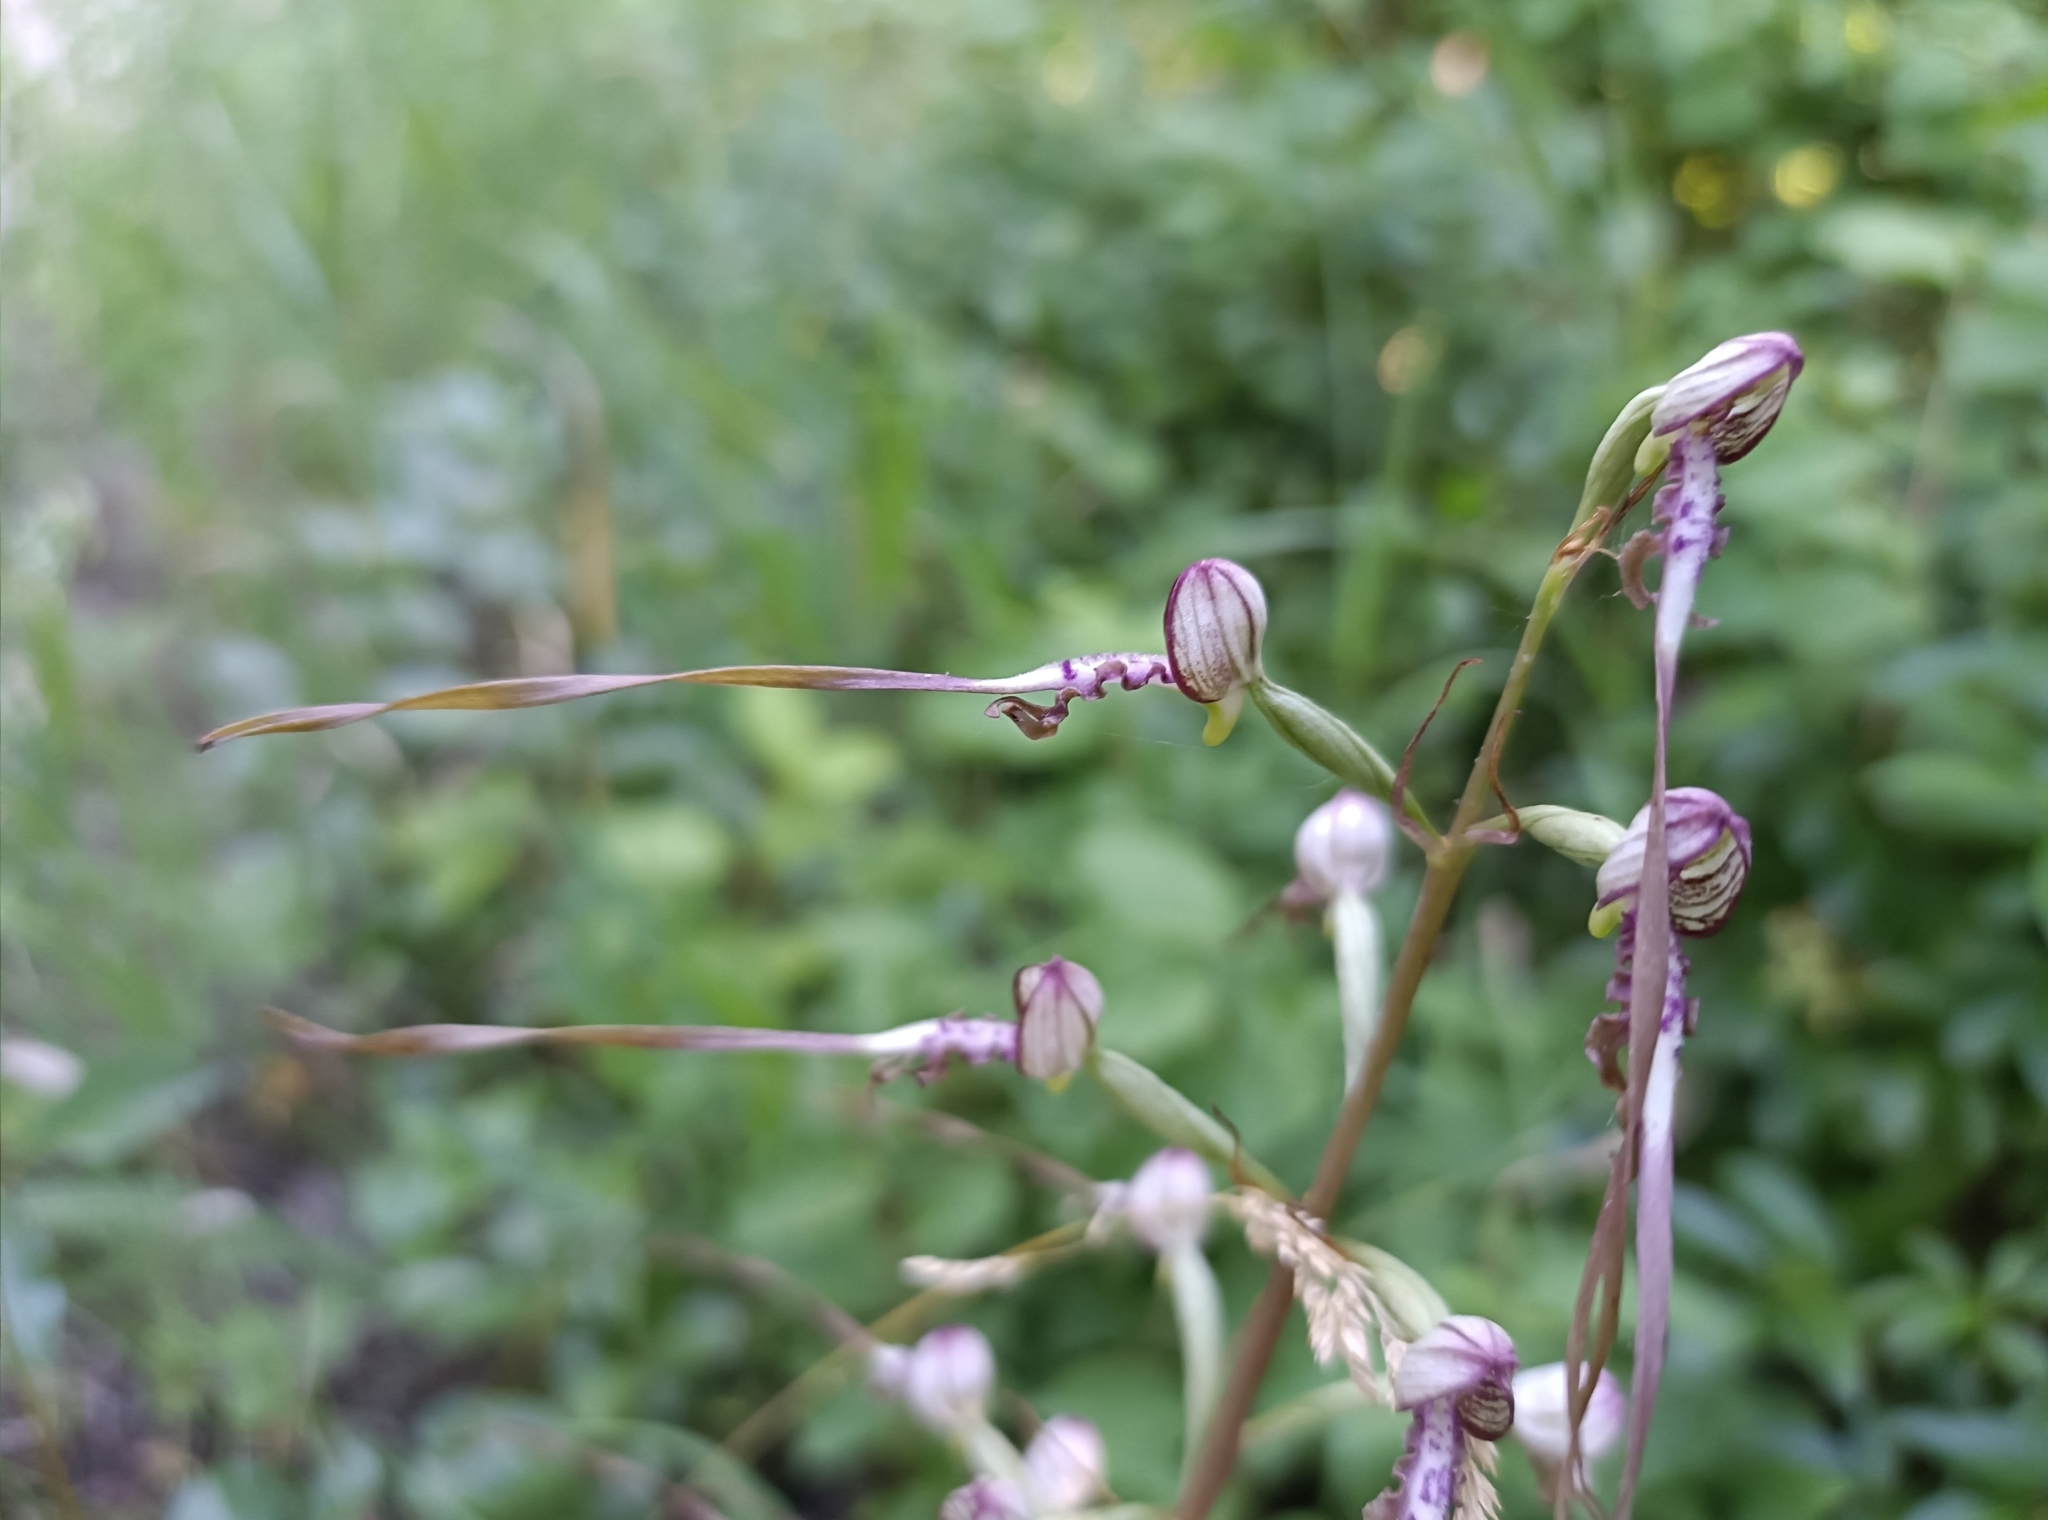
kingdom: Plantae
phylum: Tracheophyta
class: Liliopsida
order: Asparagales
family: Orchidaceae
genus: Himantoglossum
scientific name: Himantoglossum adriaticum
